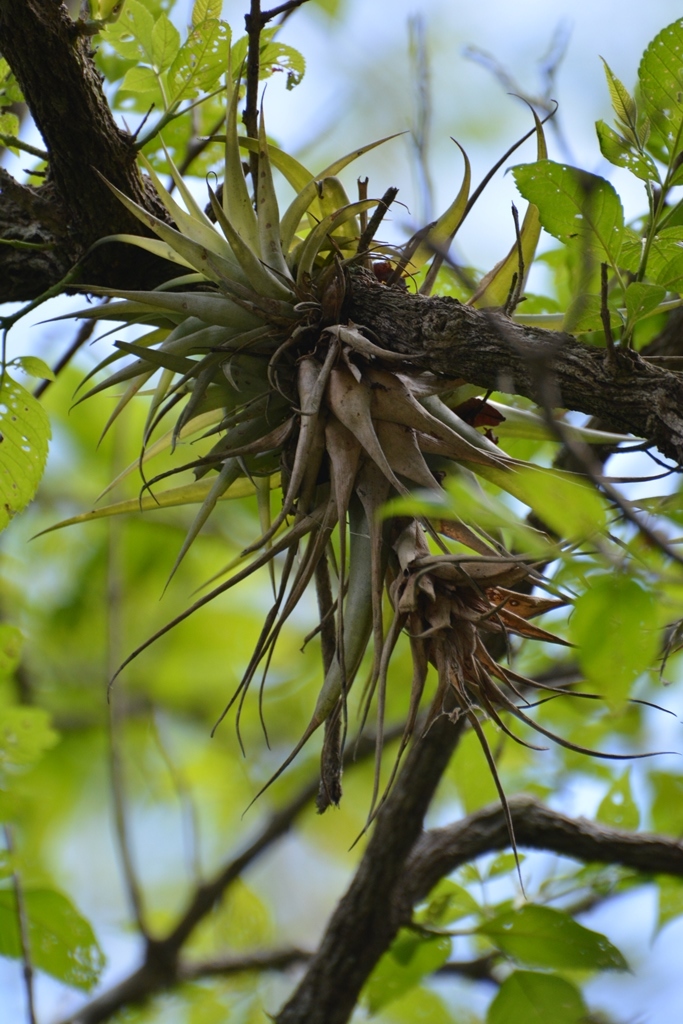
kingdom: Plantae
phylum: Tracheophyta
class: Liliopsida
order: Poales
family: Bromeliaceae
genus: Tillandsia
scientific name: Tillandsia capitata
